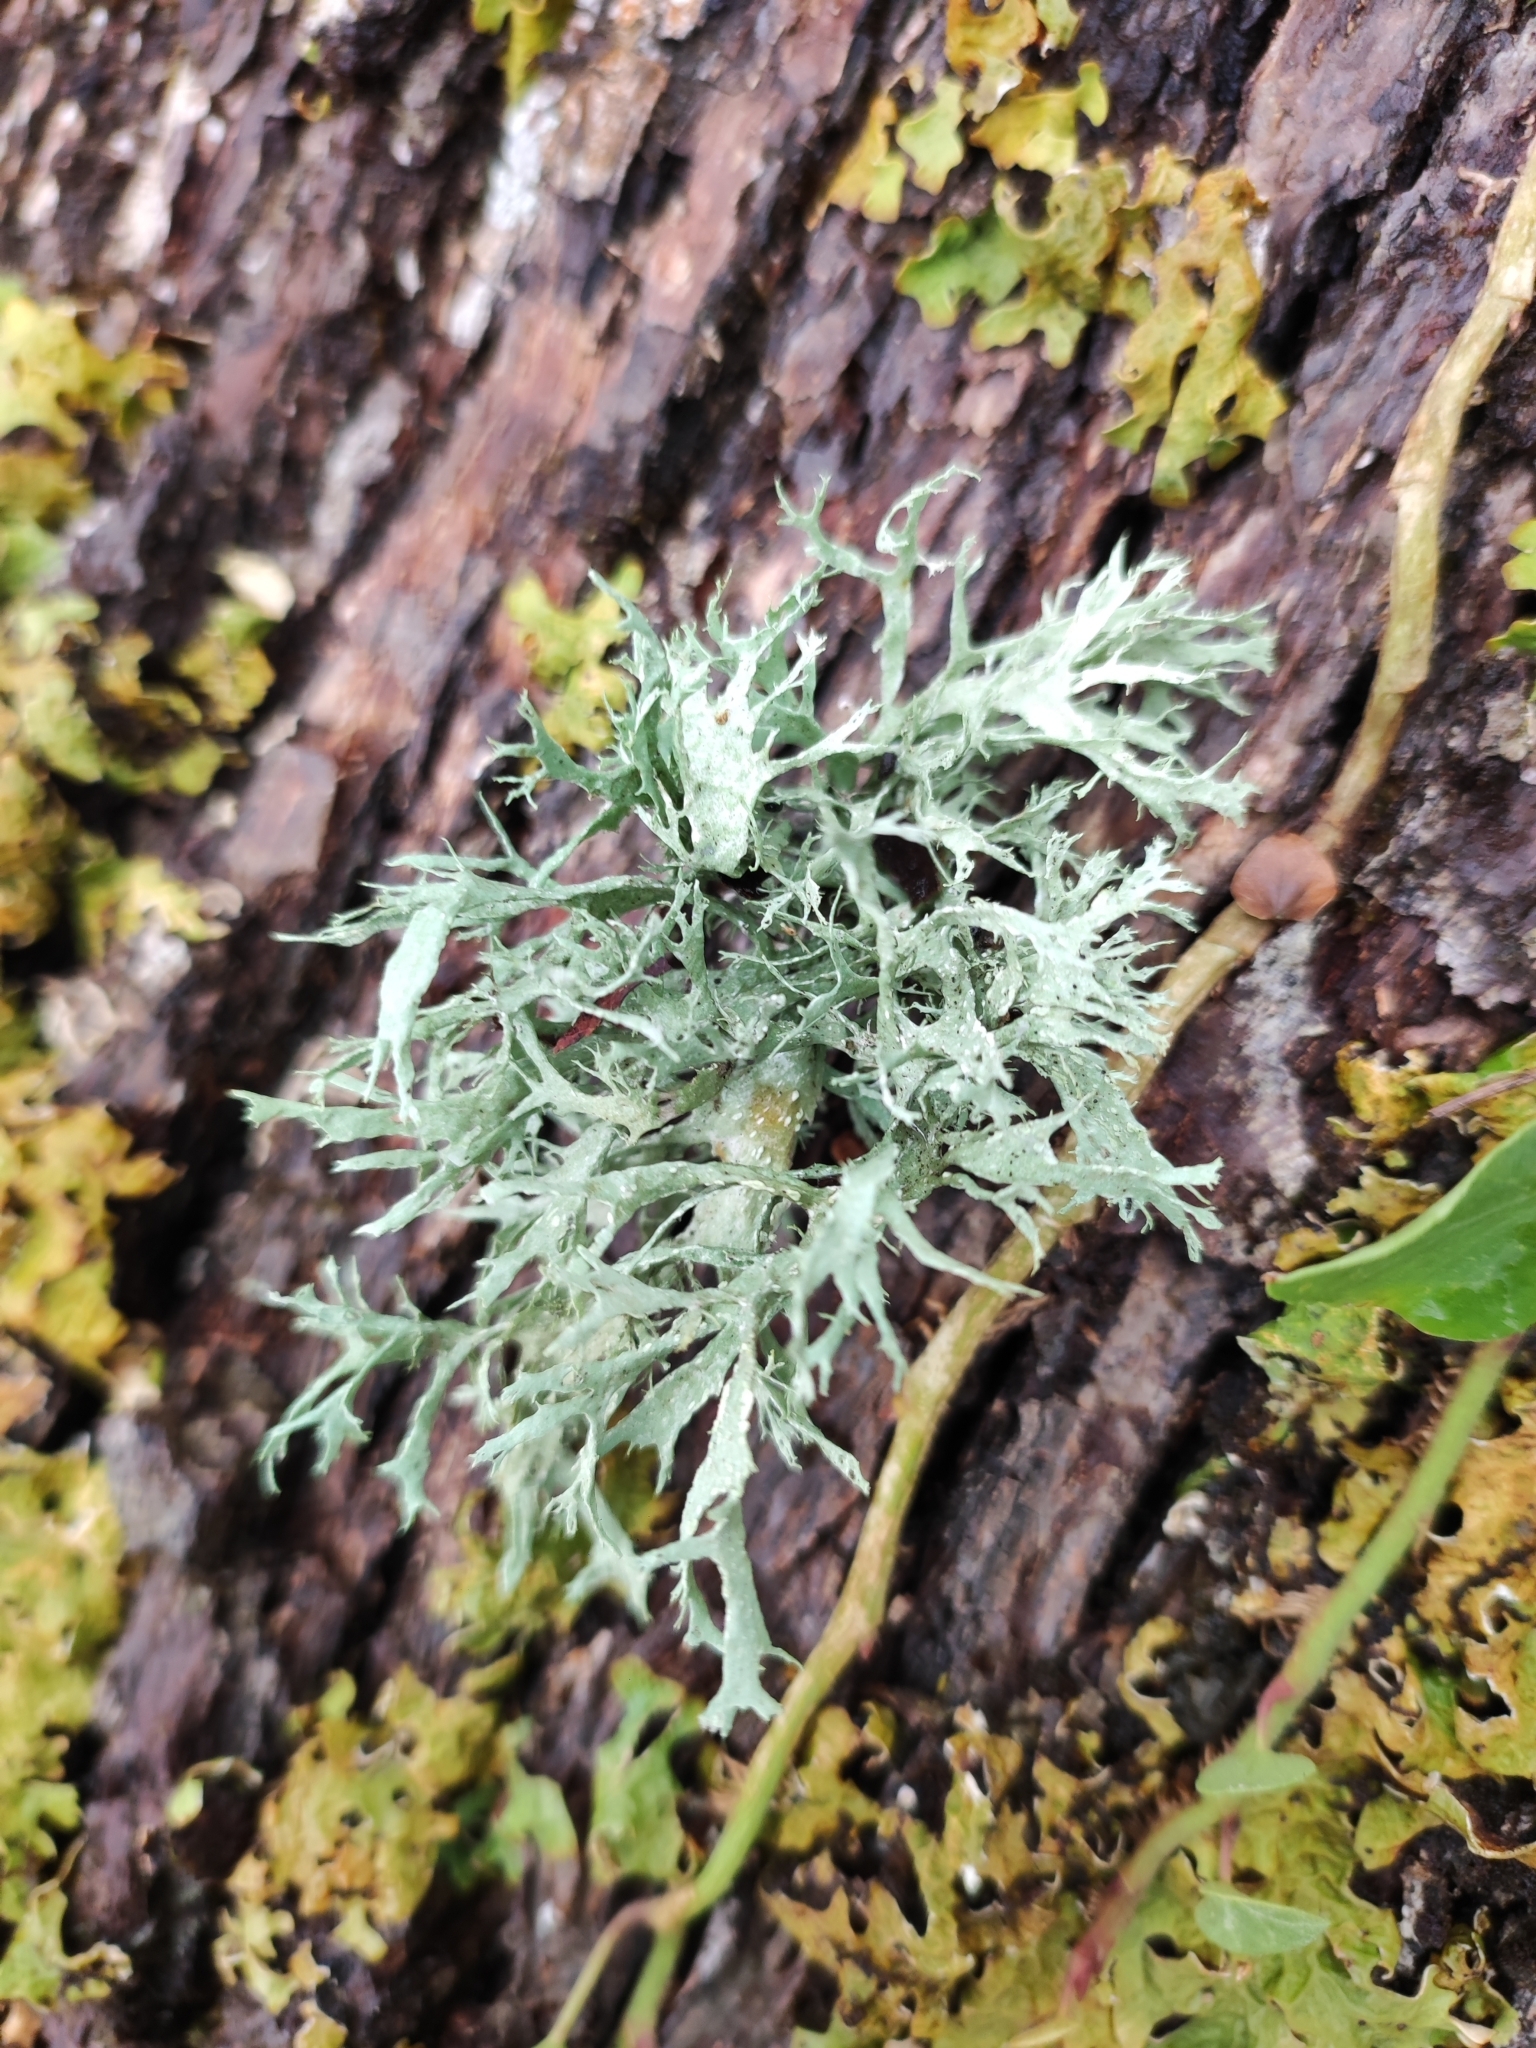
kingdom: Fungi
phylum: Ascomycota
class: Lecanoromycetes
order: Lecanorales
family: Ramalinaceae
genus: Ramalina
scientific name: Ramalina farinacea
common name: Farinose cartilage lichen
